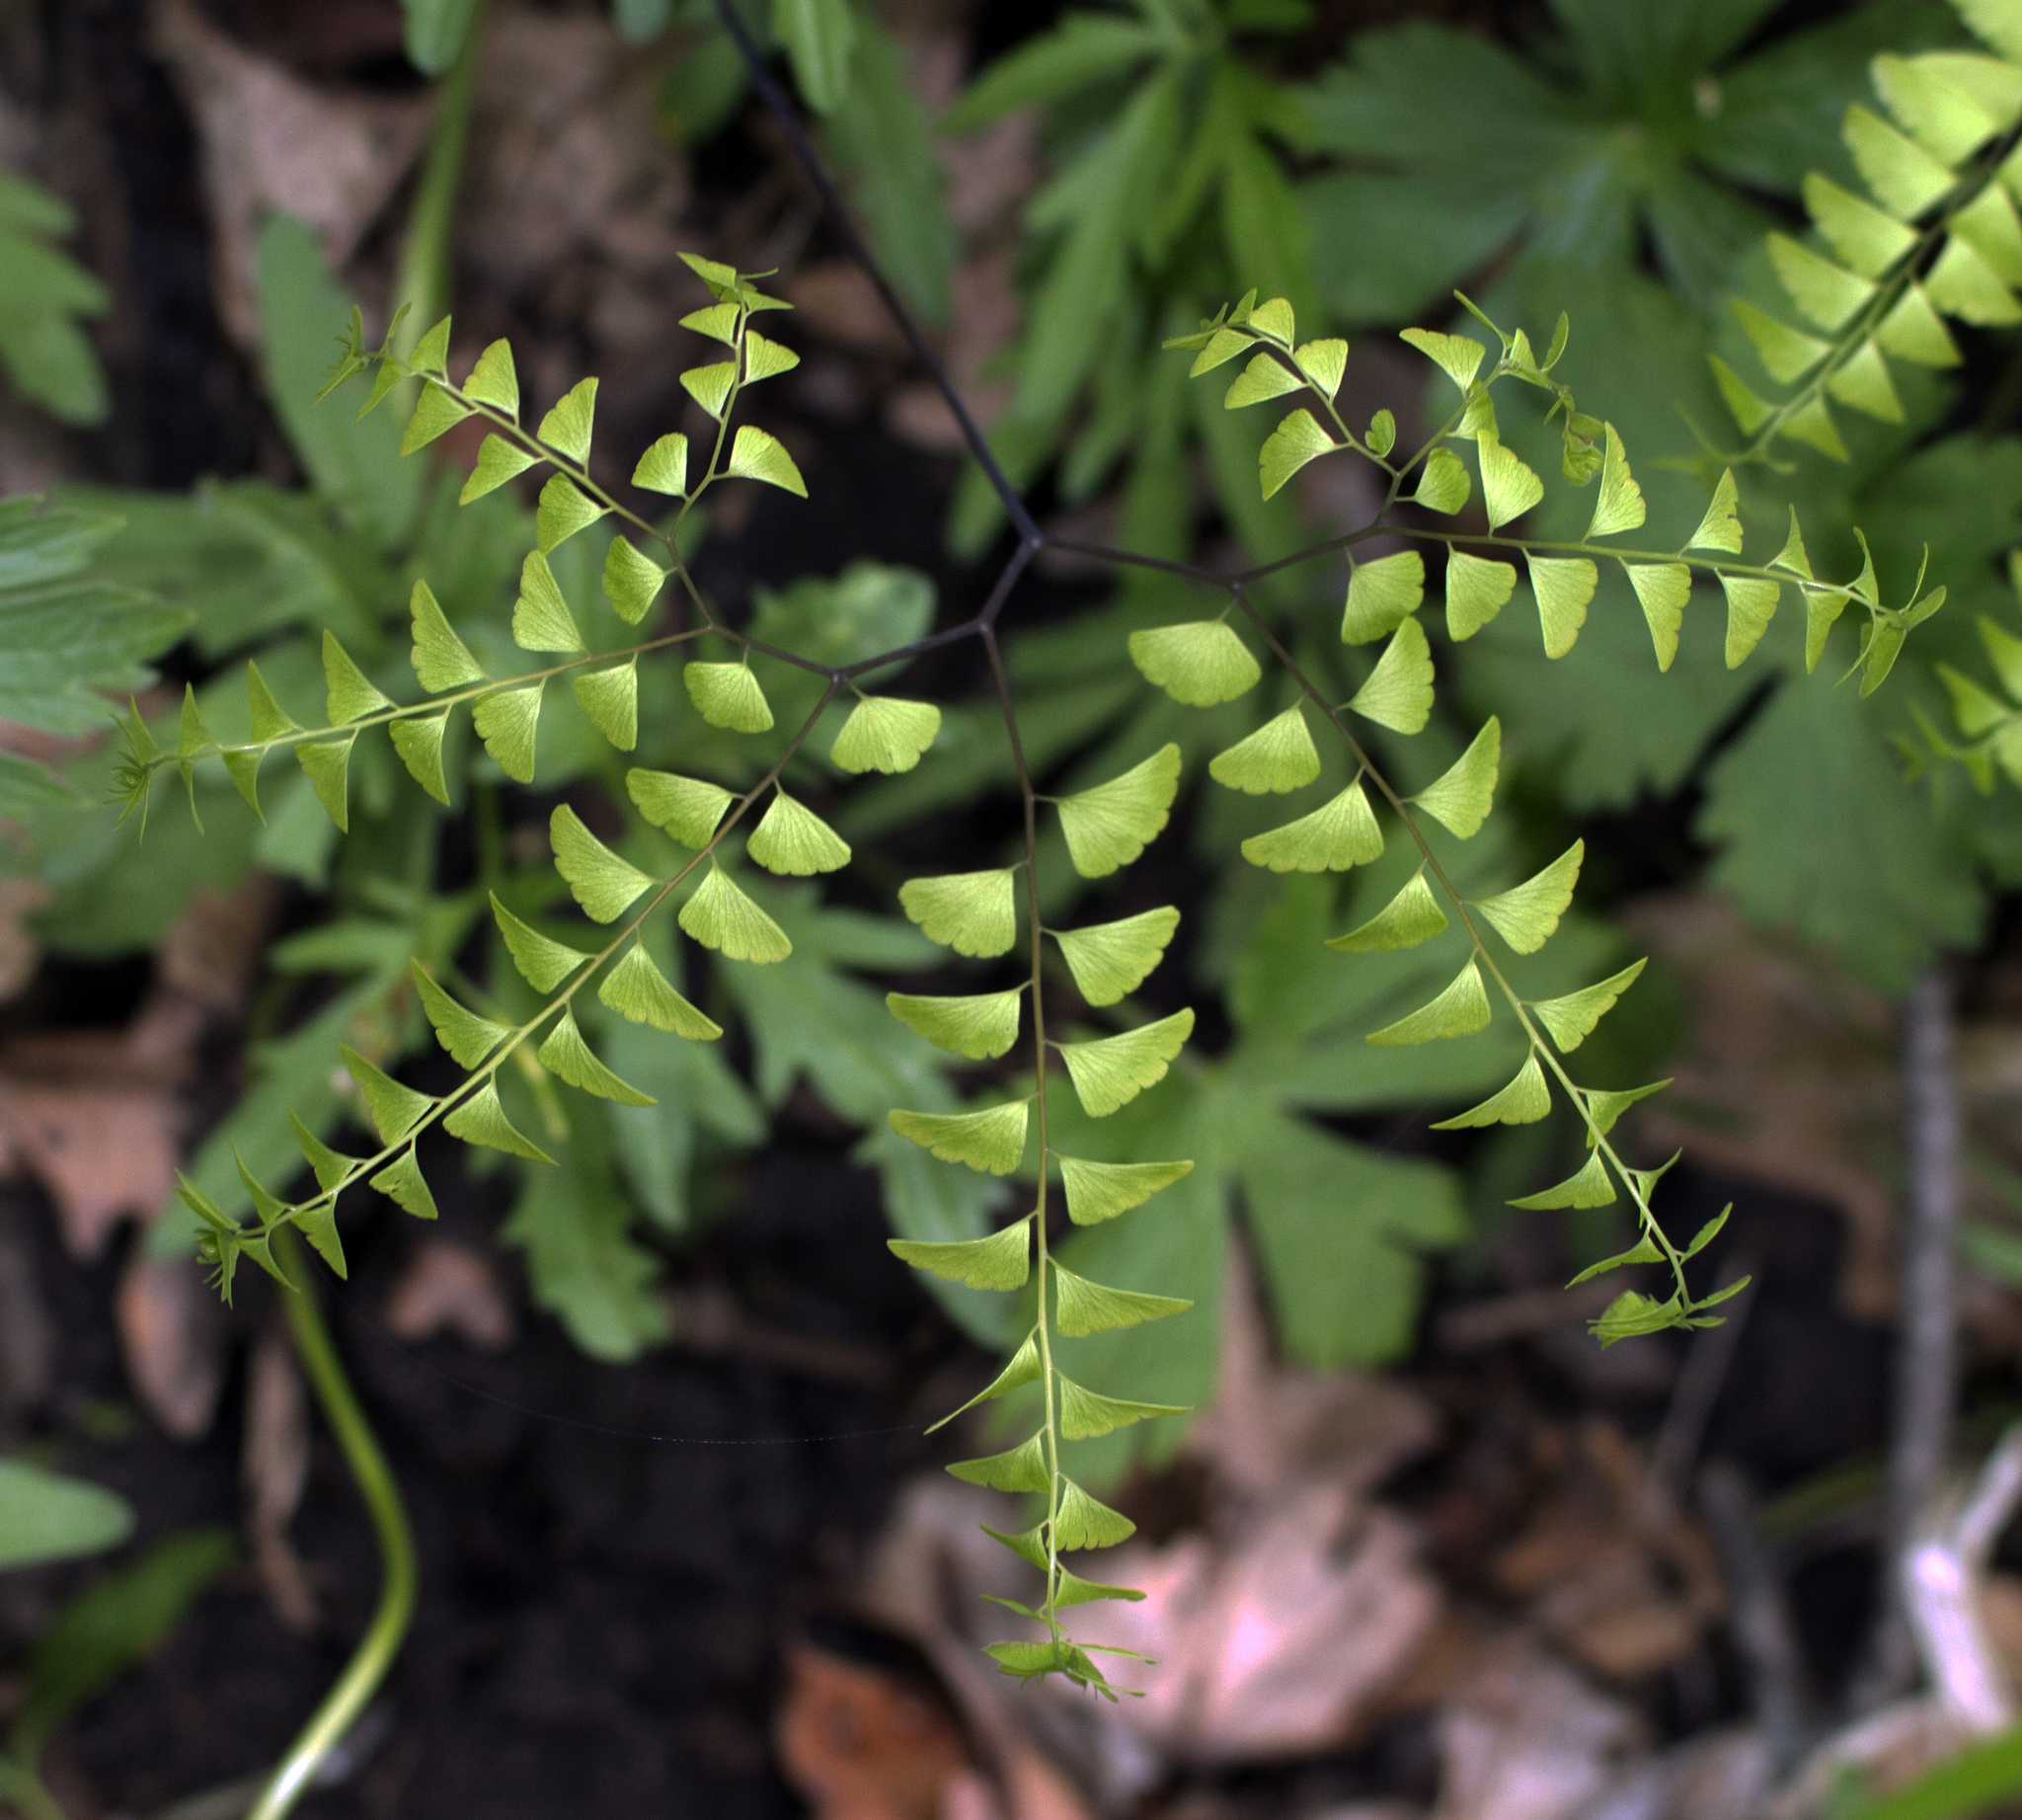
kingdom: Plantae
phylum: Tracheophyta
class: Polypodiopsida
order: Polypodiales
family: Pteridaceae
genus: Adiantum
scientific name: Adiantum pedatum
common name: Five-finger fern
